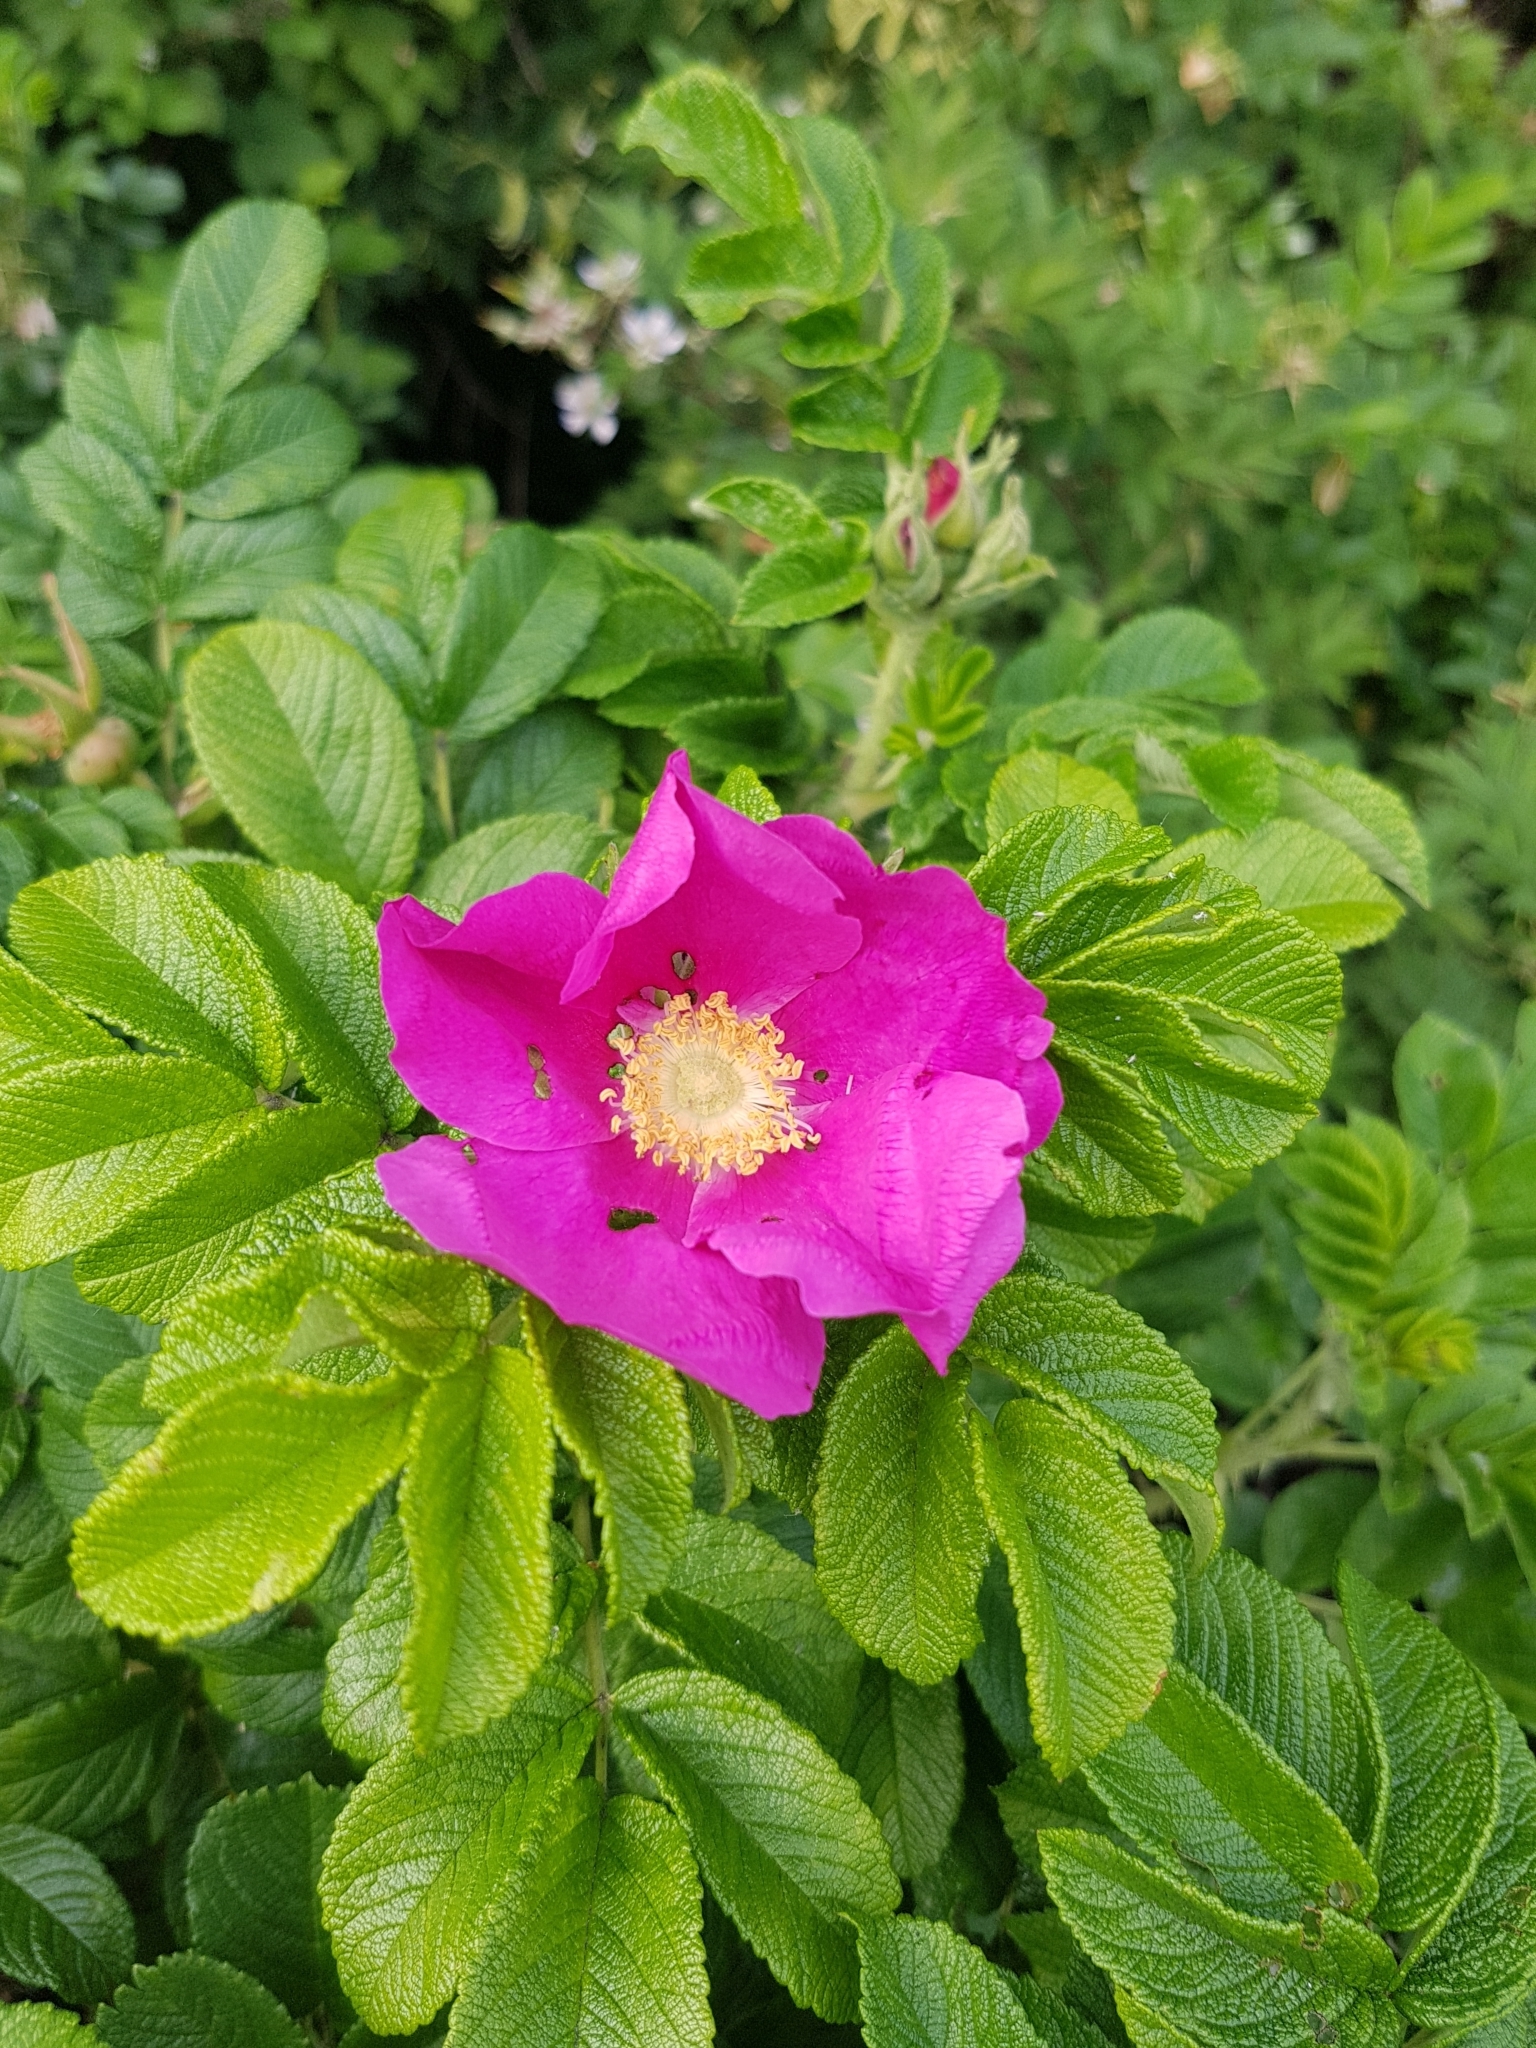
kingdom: Plantae
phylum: Tracheophyta
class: Magnoliopsida
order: Rosales
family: Rosaceae
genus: Rosa
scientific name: Rosa rugosa
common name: Japanese rose
